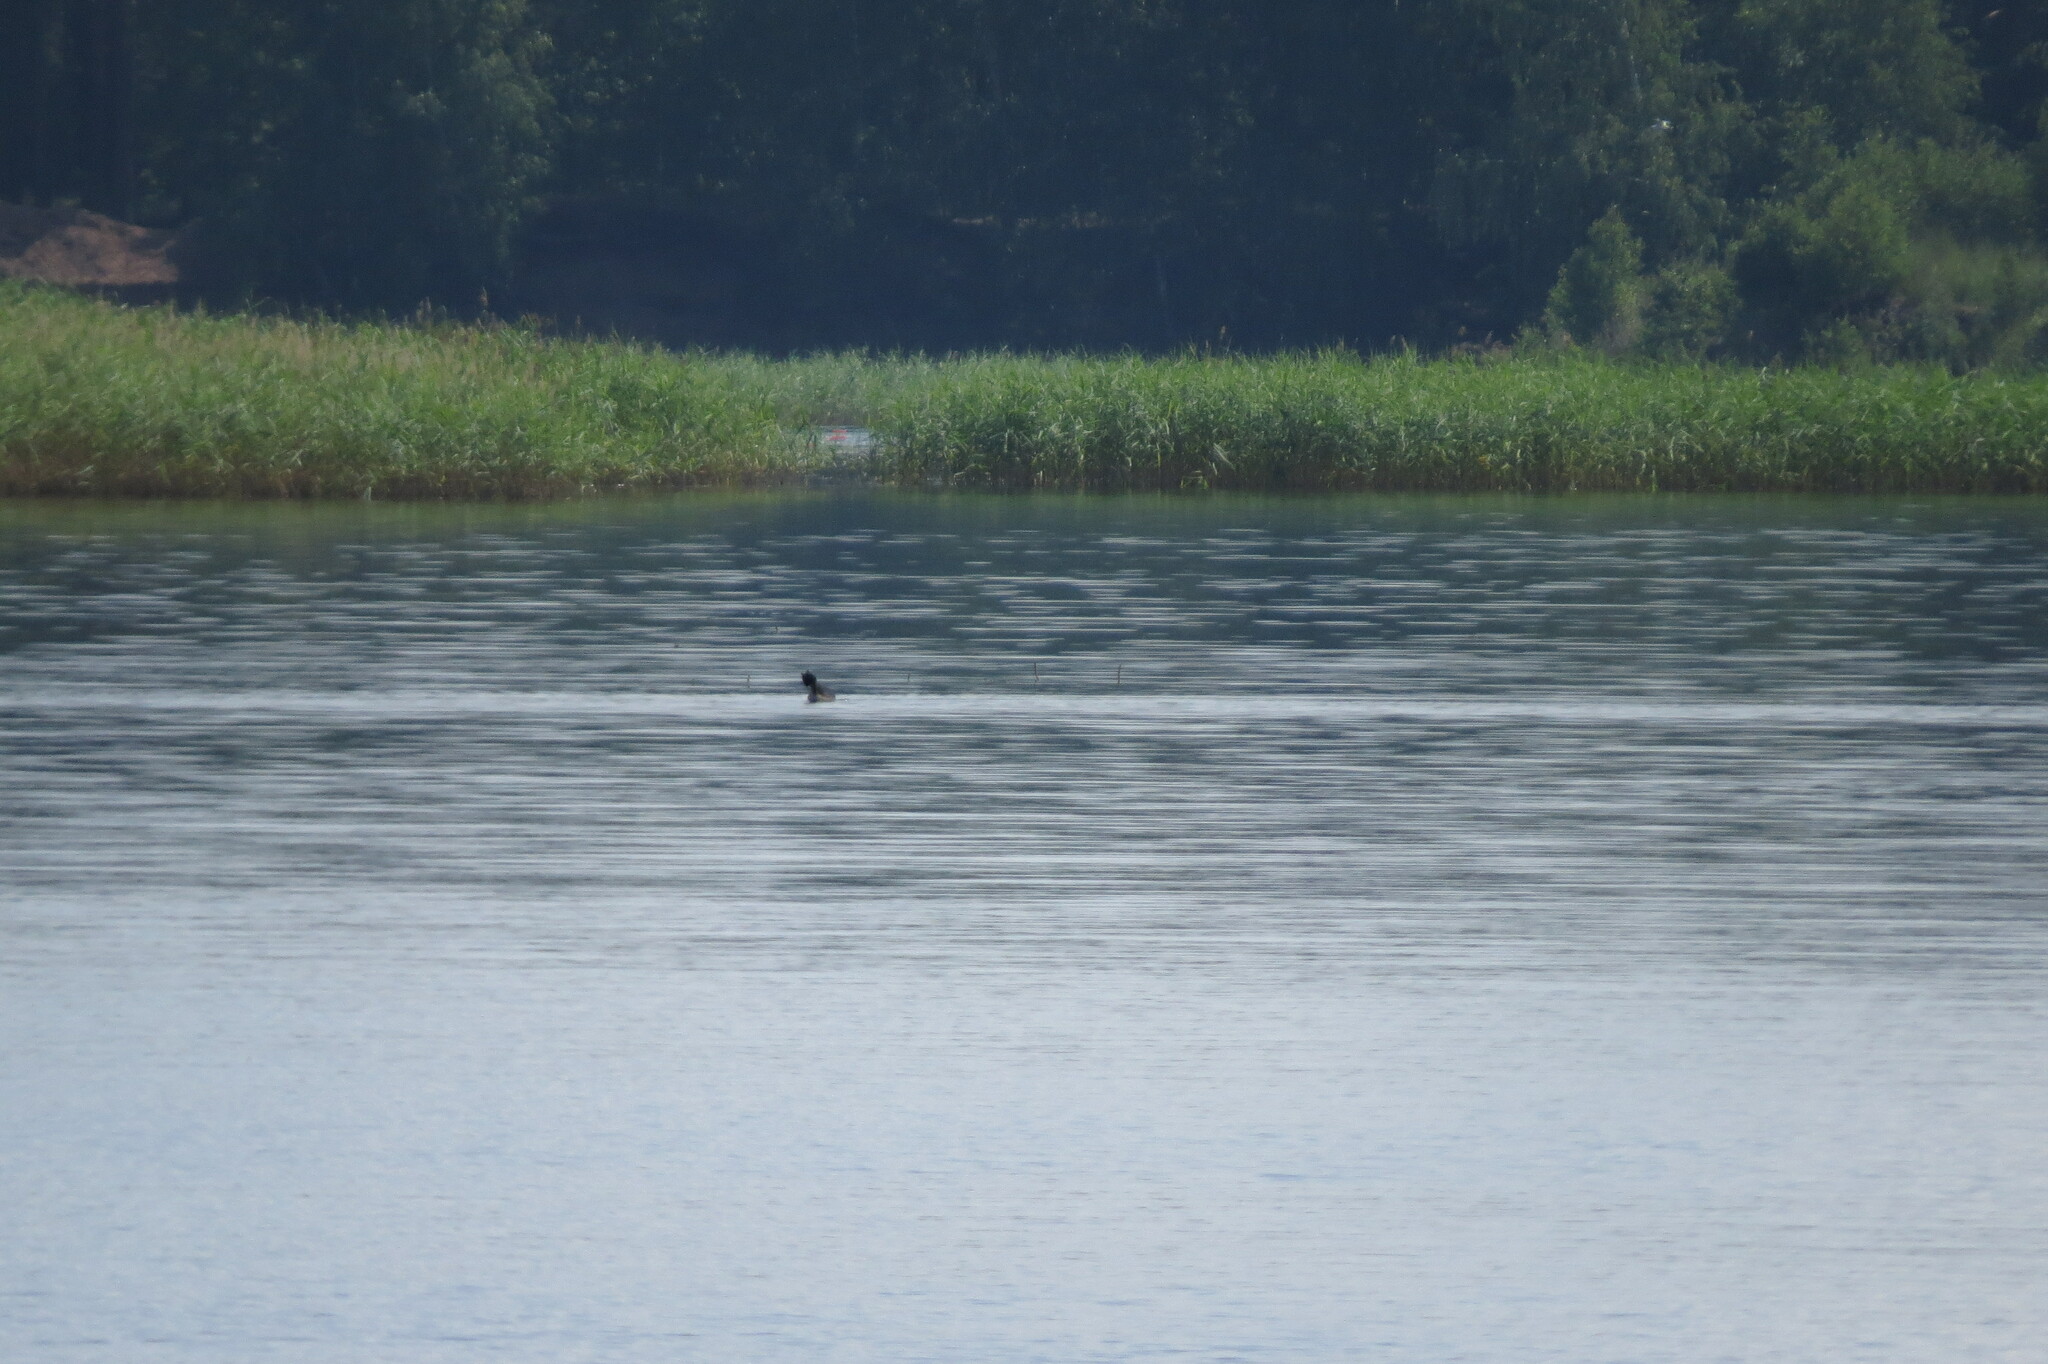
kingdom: Animalia
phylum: Chordata
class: Aves
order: Podicipediformes
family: Podicipedidae
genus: Podiceps
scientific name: Podiceps cristatus
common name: Great crested grebe
